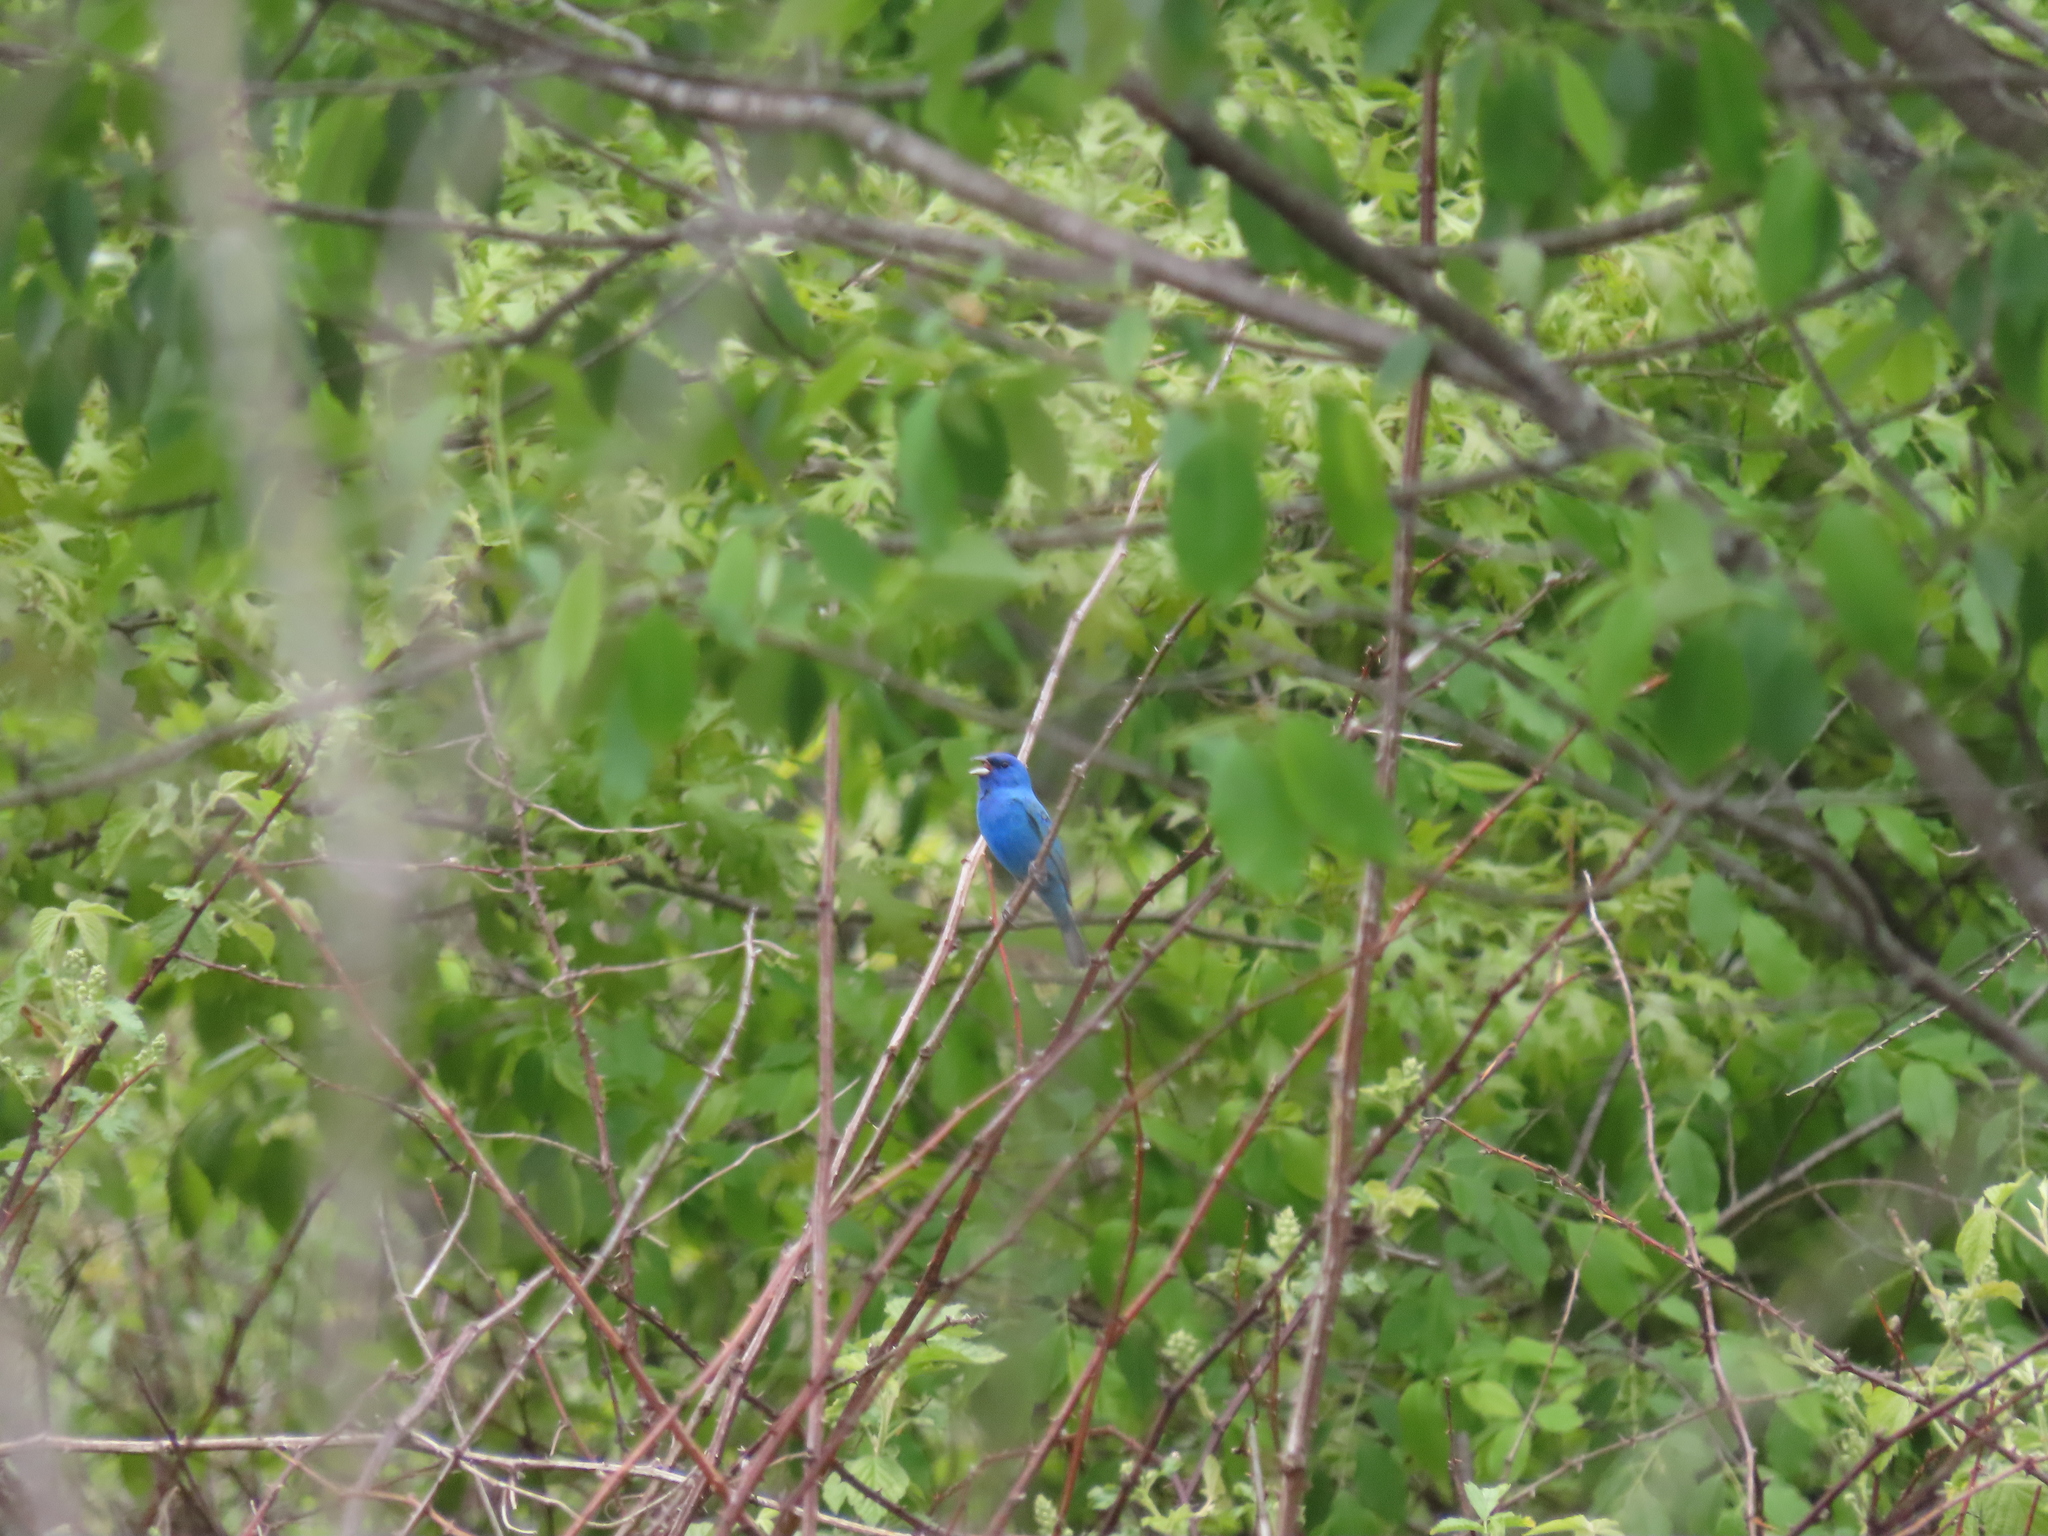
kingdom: Animalia
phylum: Chordata
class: Aves
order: Passeriformes
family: Cardinalidae
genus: Passerina
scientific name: Passerina cyanea
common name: Indigo bunting
